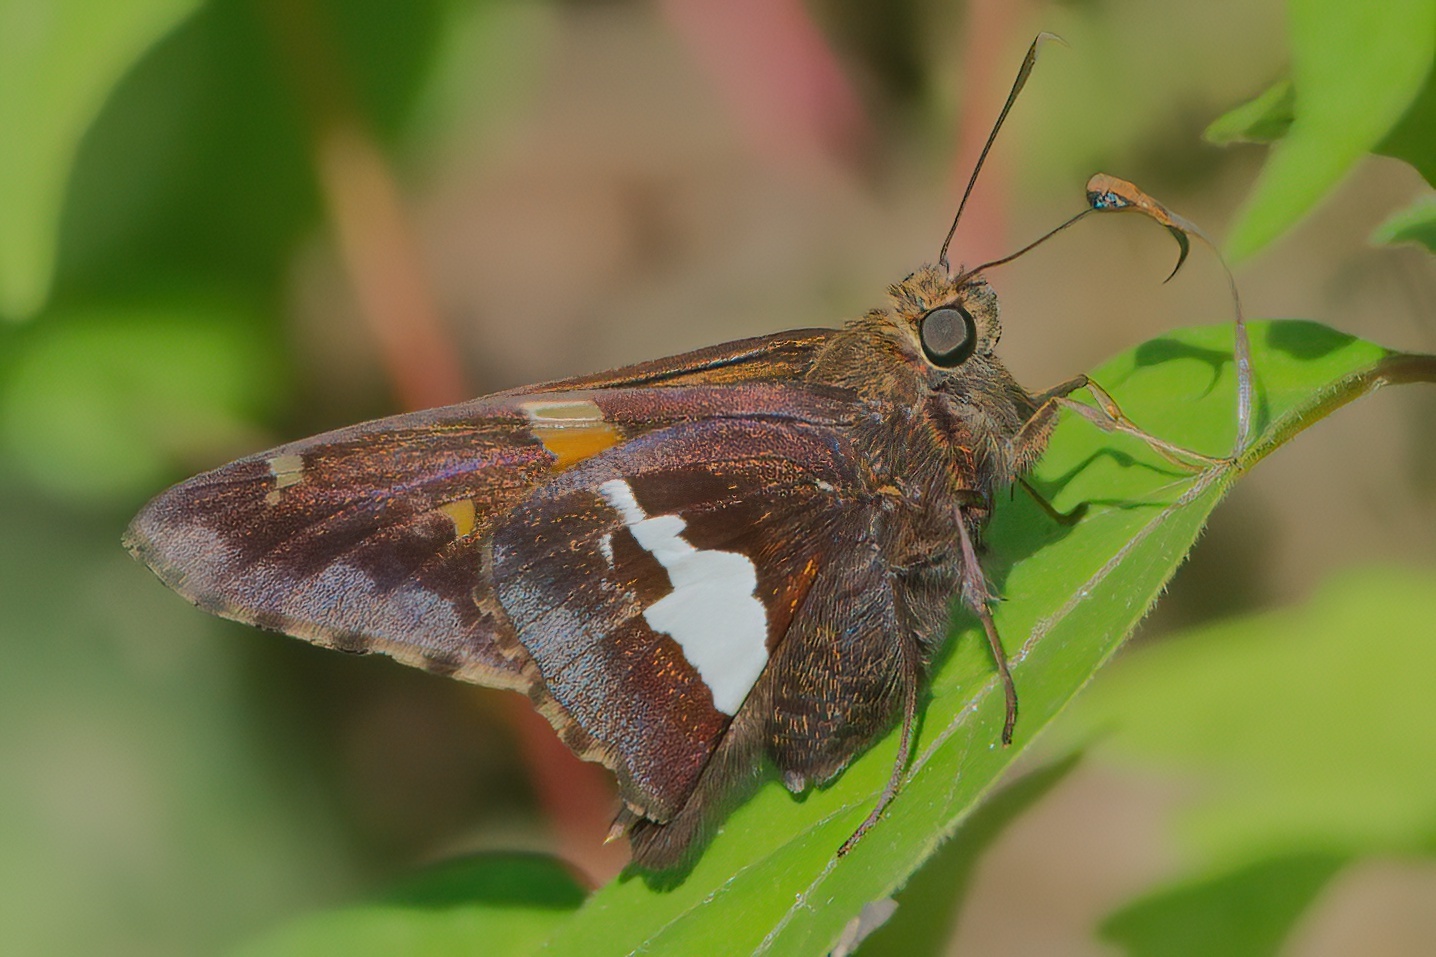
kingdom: Animalia
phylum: Arthropoda
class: Insecta
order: Lepidoptera
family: Hesperiidae
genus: Epargyreus
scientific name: Epargyreus clarus
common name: Silver-spotted skipper
